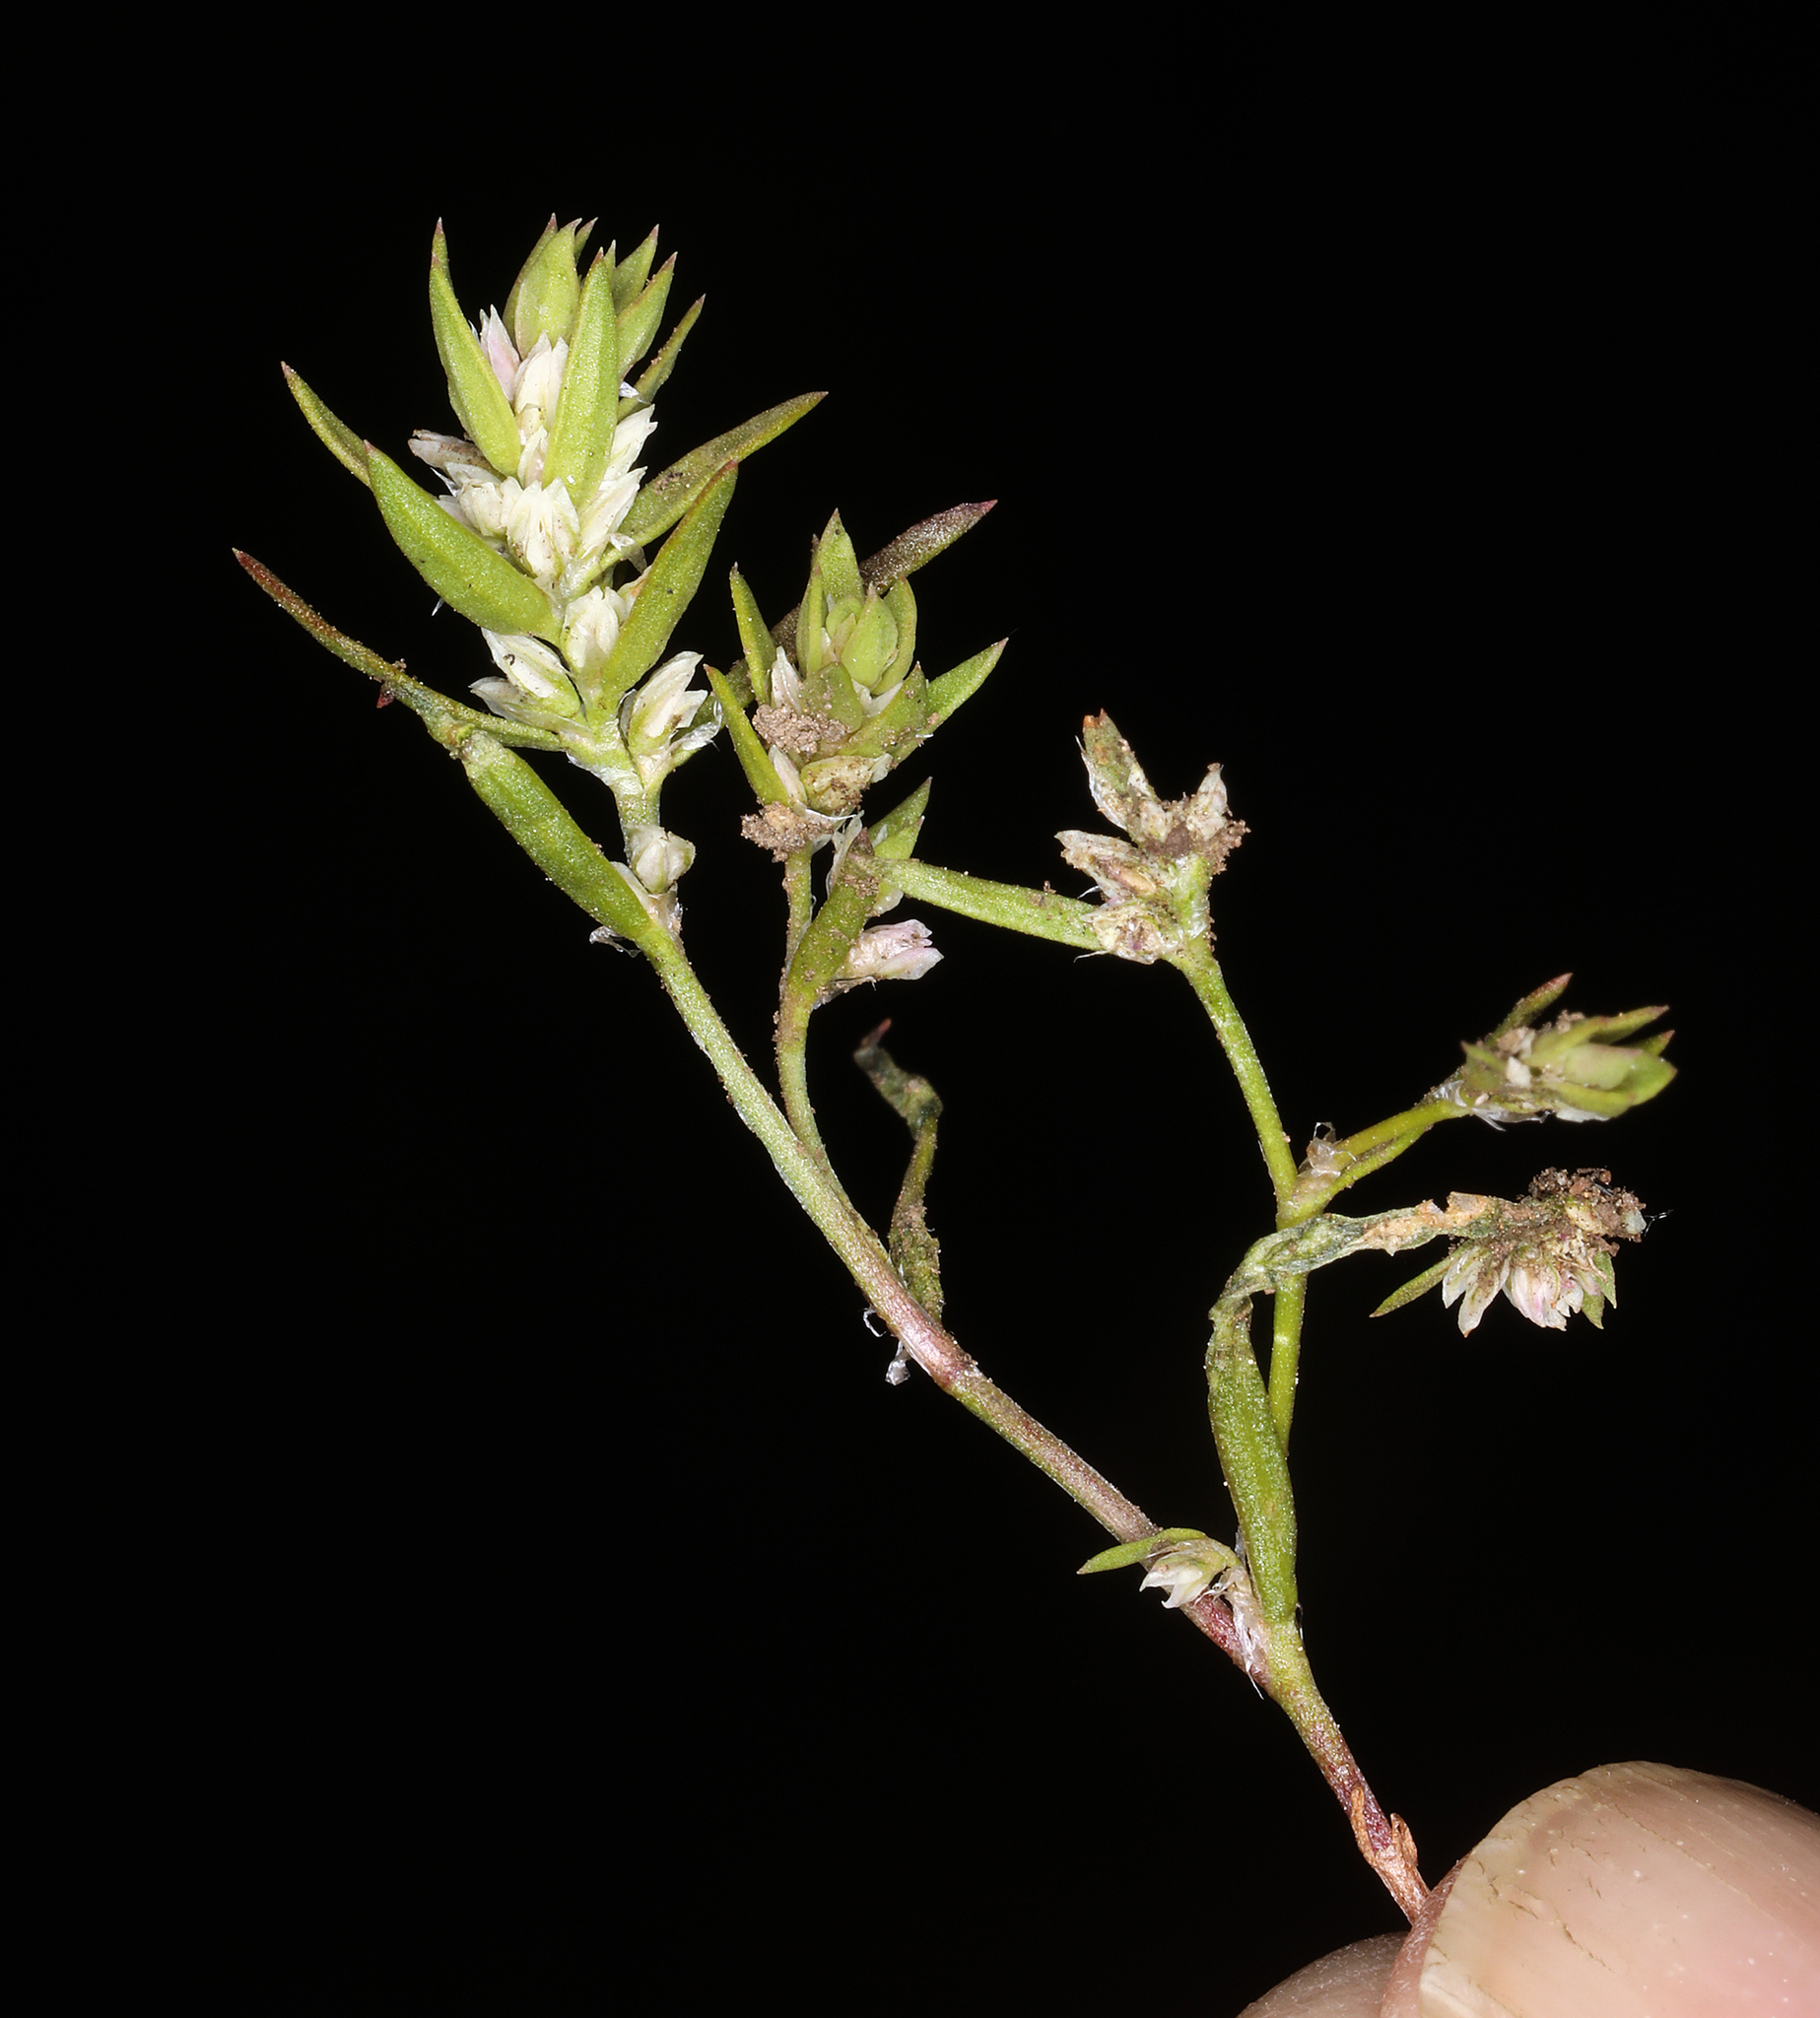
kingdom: Plantae
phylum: Tracheophyta
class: Magnoliopsida
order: Caryophyllales
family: Polygonaceae
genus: Polygonum
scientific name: Polygonum douglasii
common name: Douglas' knotweed
